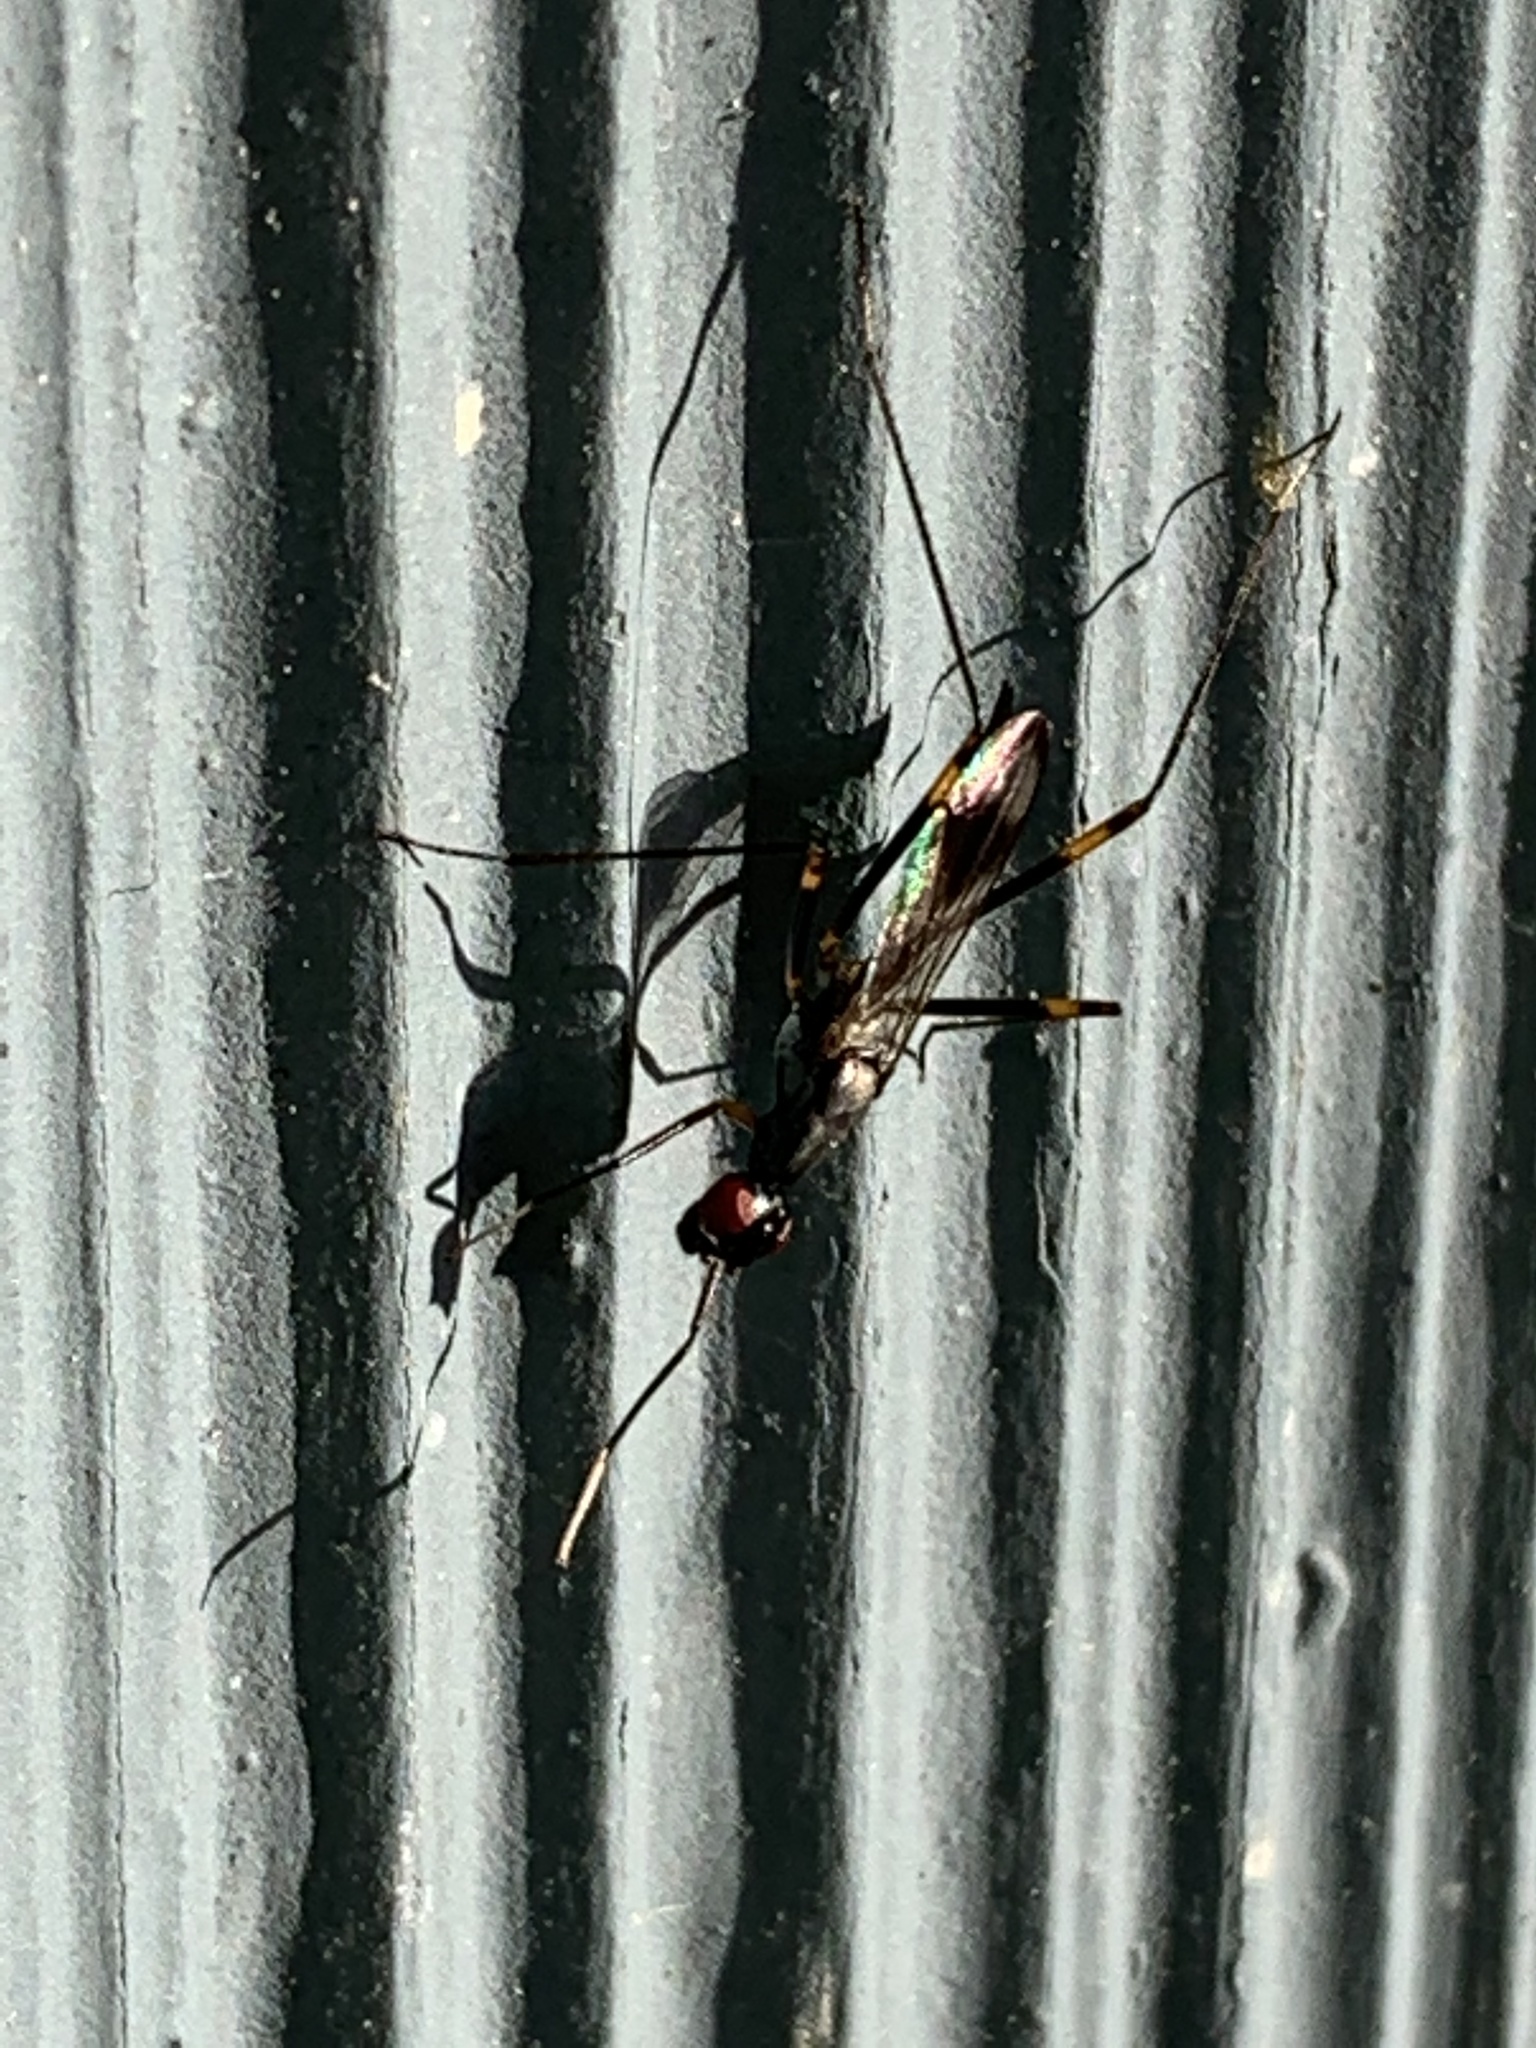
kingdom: Animalia
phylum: Arthropoda
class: Insecta
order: Diptera
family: Micropezidae
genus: Rainieria
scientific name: Rainieria antennaepes
